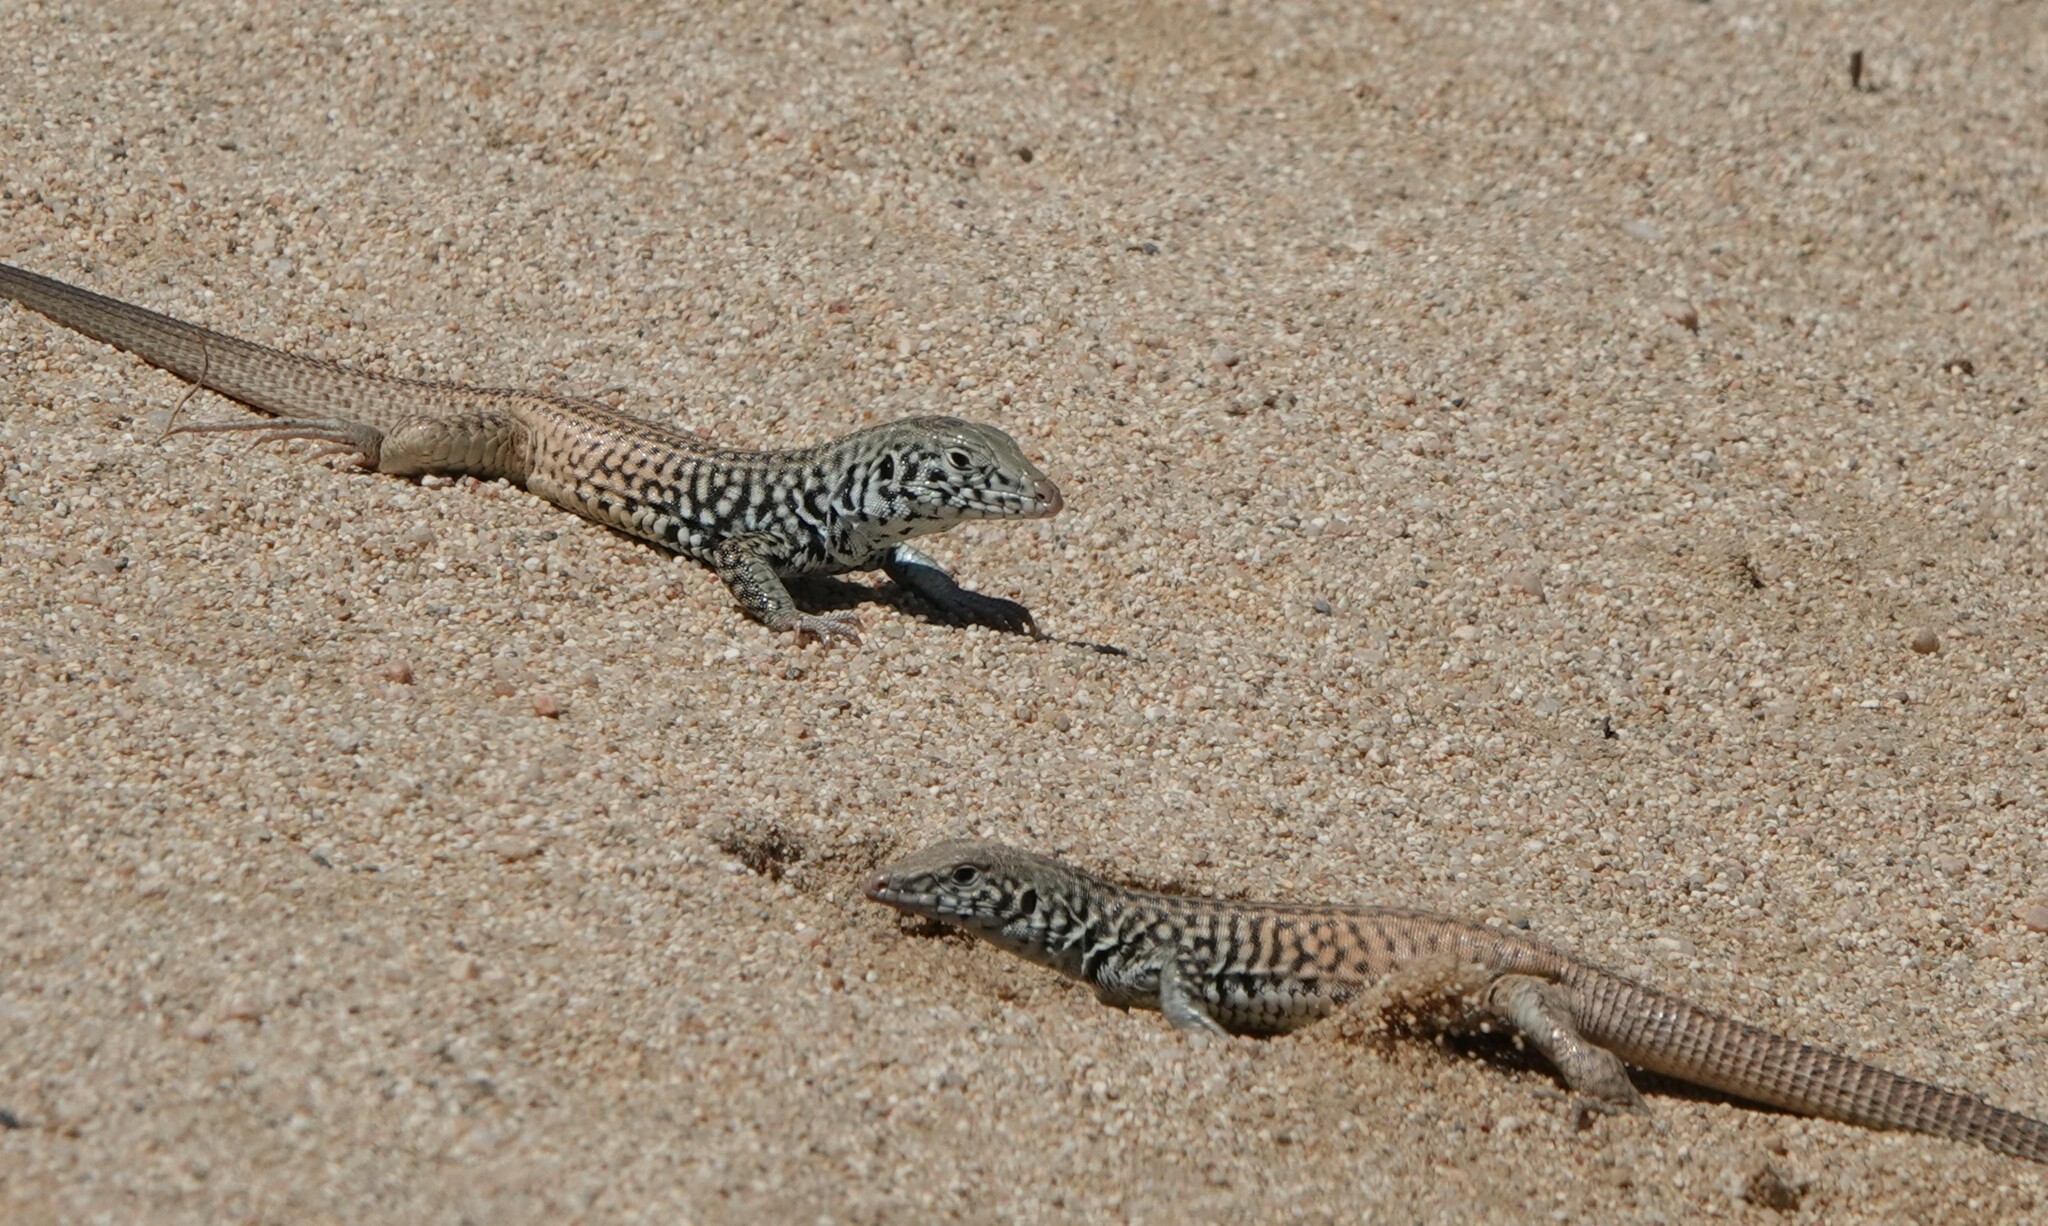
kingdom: Animalia
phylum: Chordata
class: Squamata
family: Teiidae
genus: Aspidoscelis
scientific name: Aspidoscelis tigris
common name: Tiger whiptail
